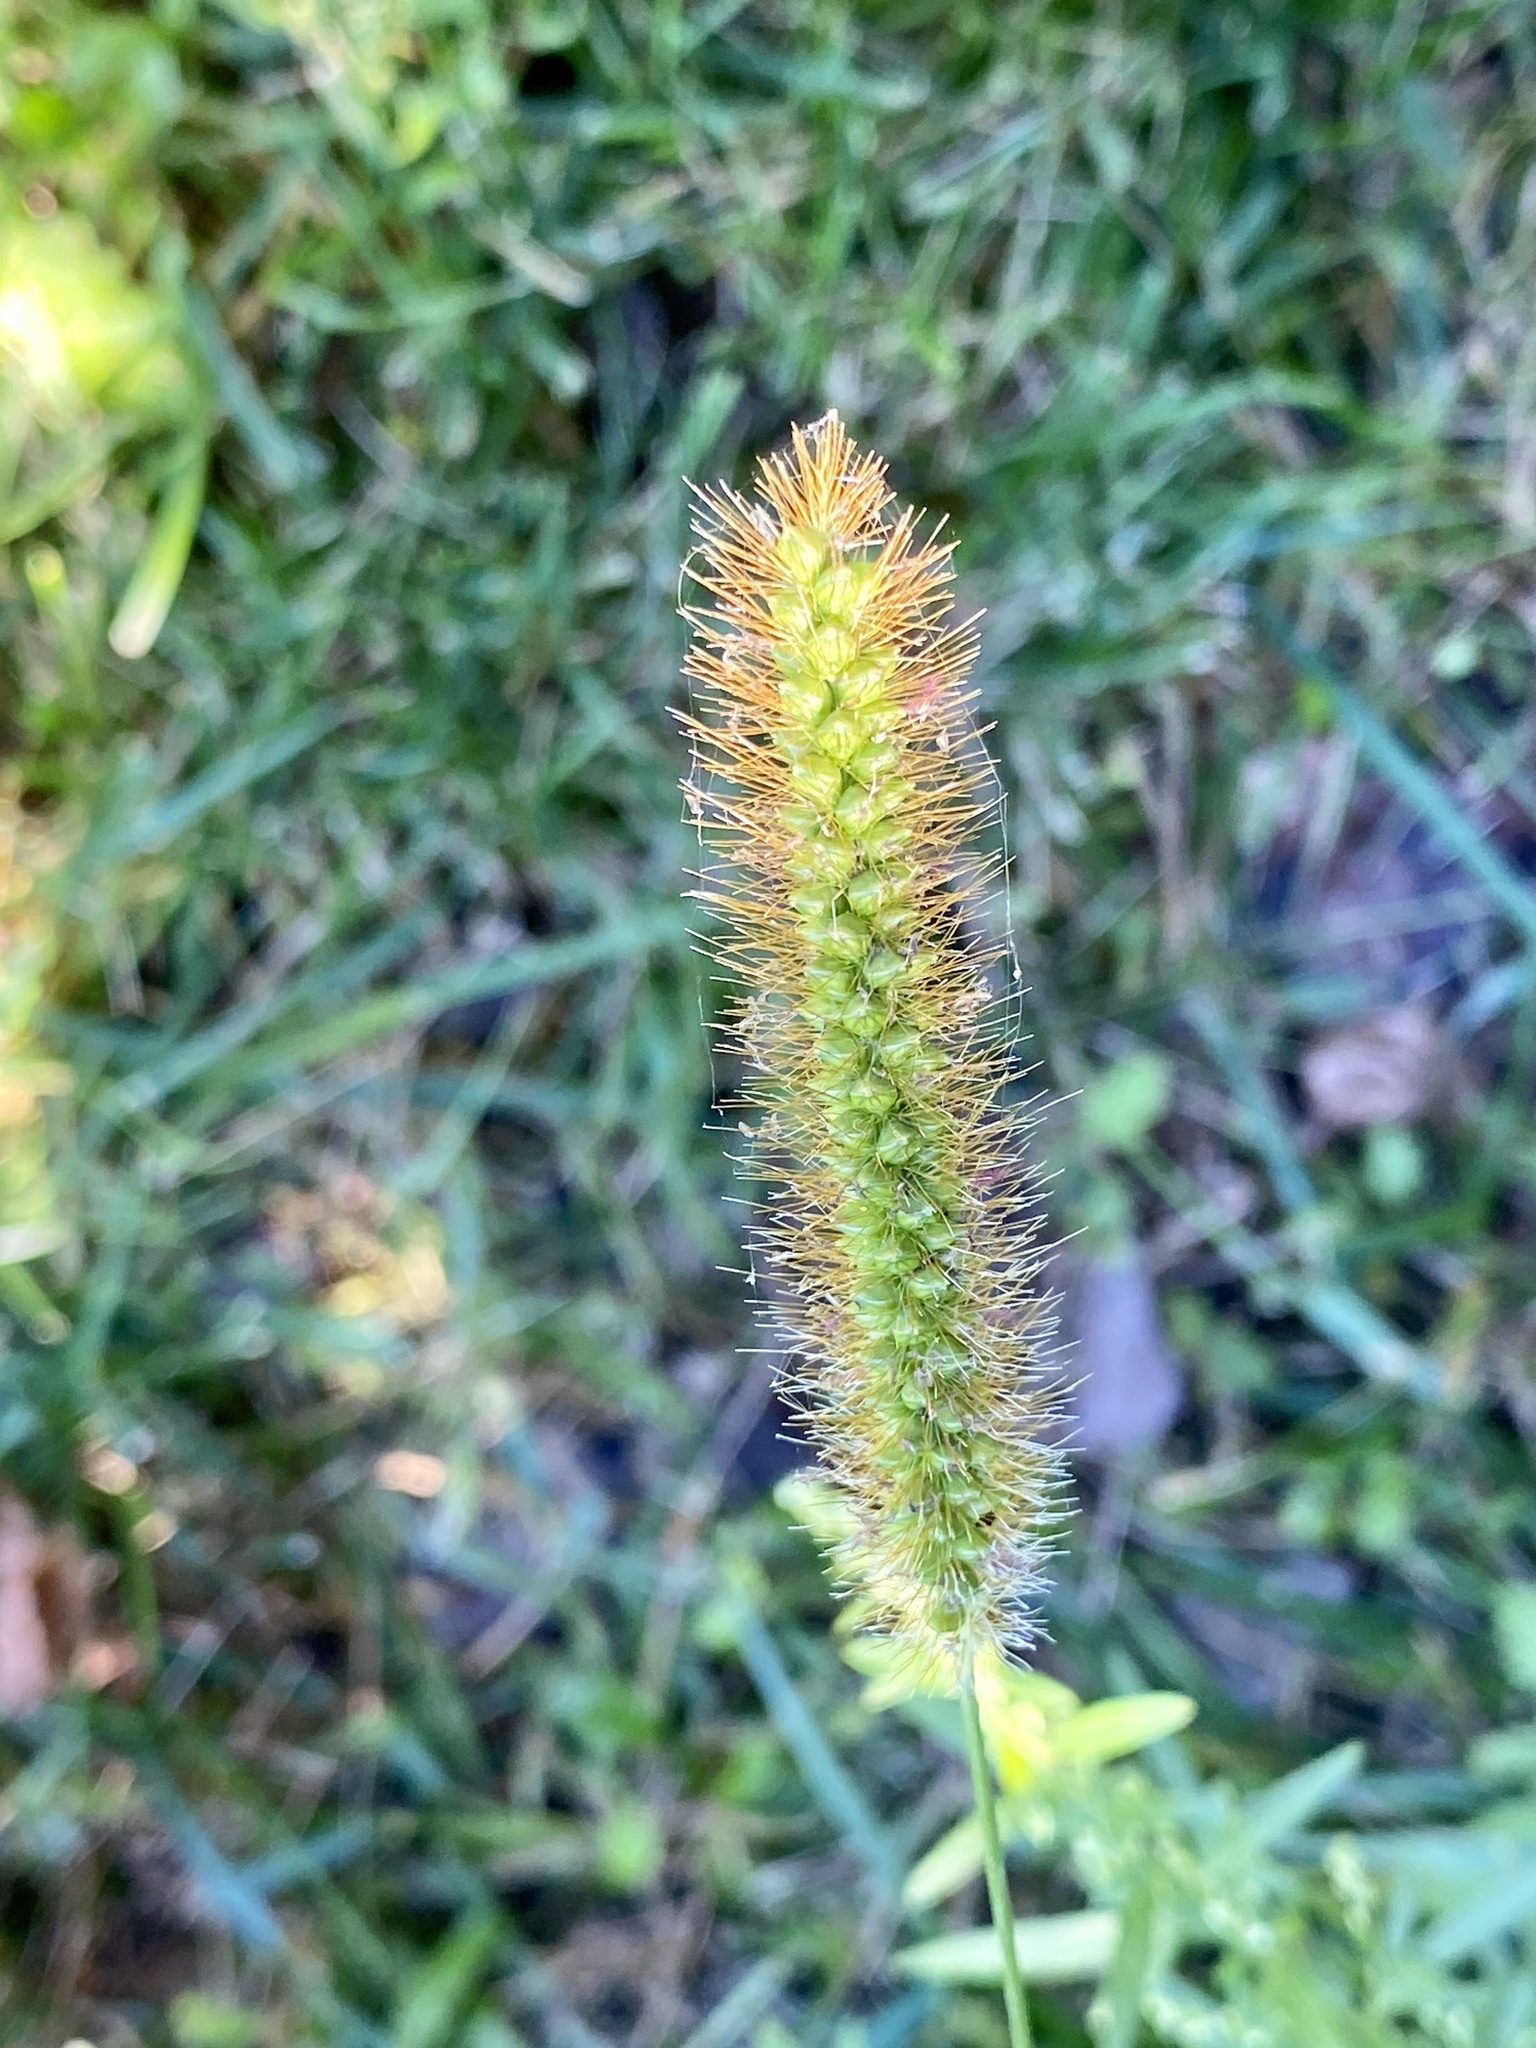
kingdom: Plantae
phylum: Tracheophyta
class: Liliopsida
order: Poales
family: Poaceae
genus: Setaria
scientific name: Setaria pumila
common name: Yellow bristle-grass
